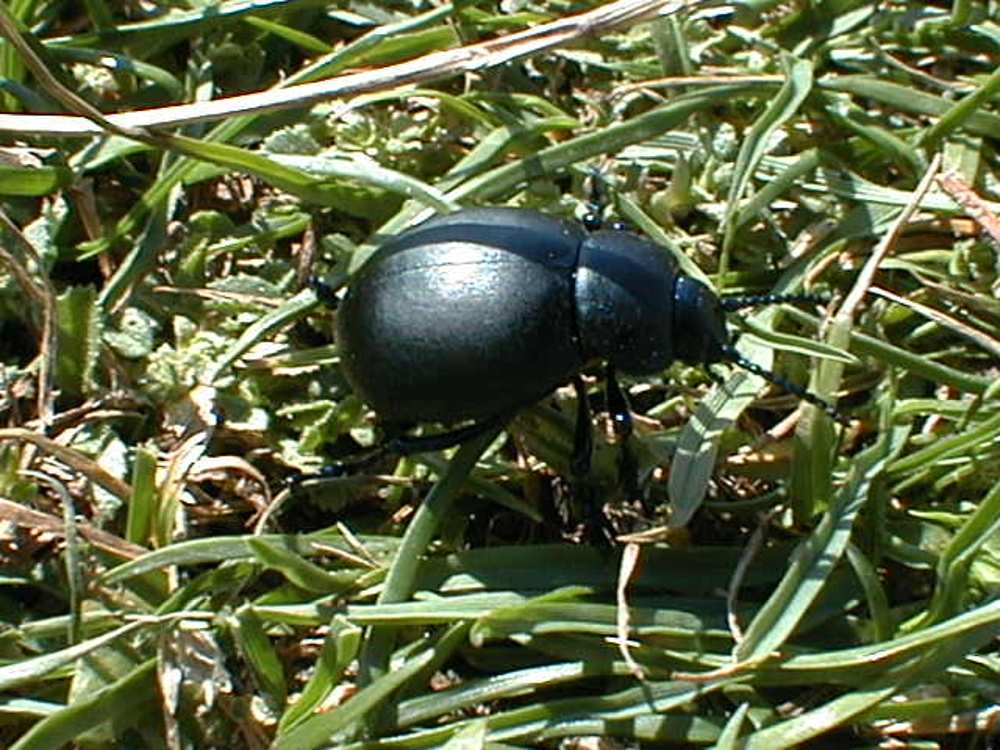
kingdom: Animalia
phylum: Arthropoda
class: Insecta
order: Coleoptera
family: Chrysomelidae
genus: Timarcha
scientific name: Timarcha tenebricosa
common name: Bloody-nosed beetle
